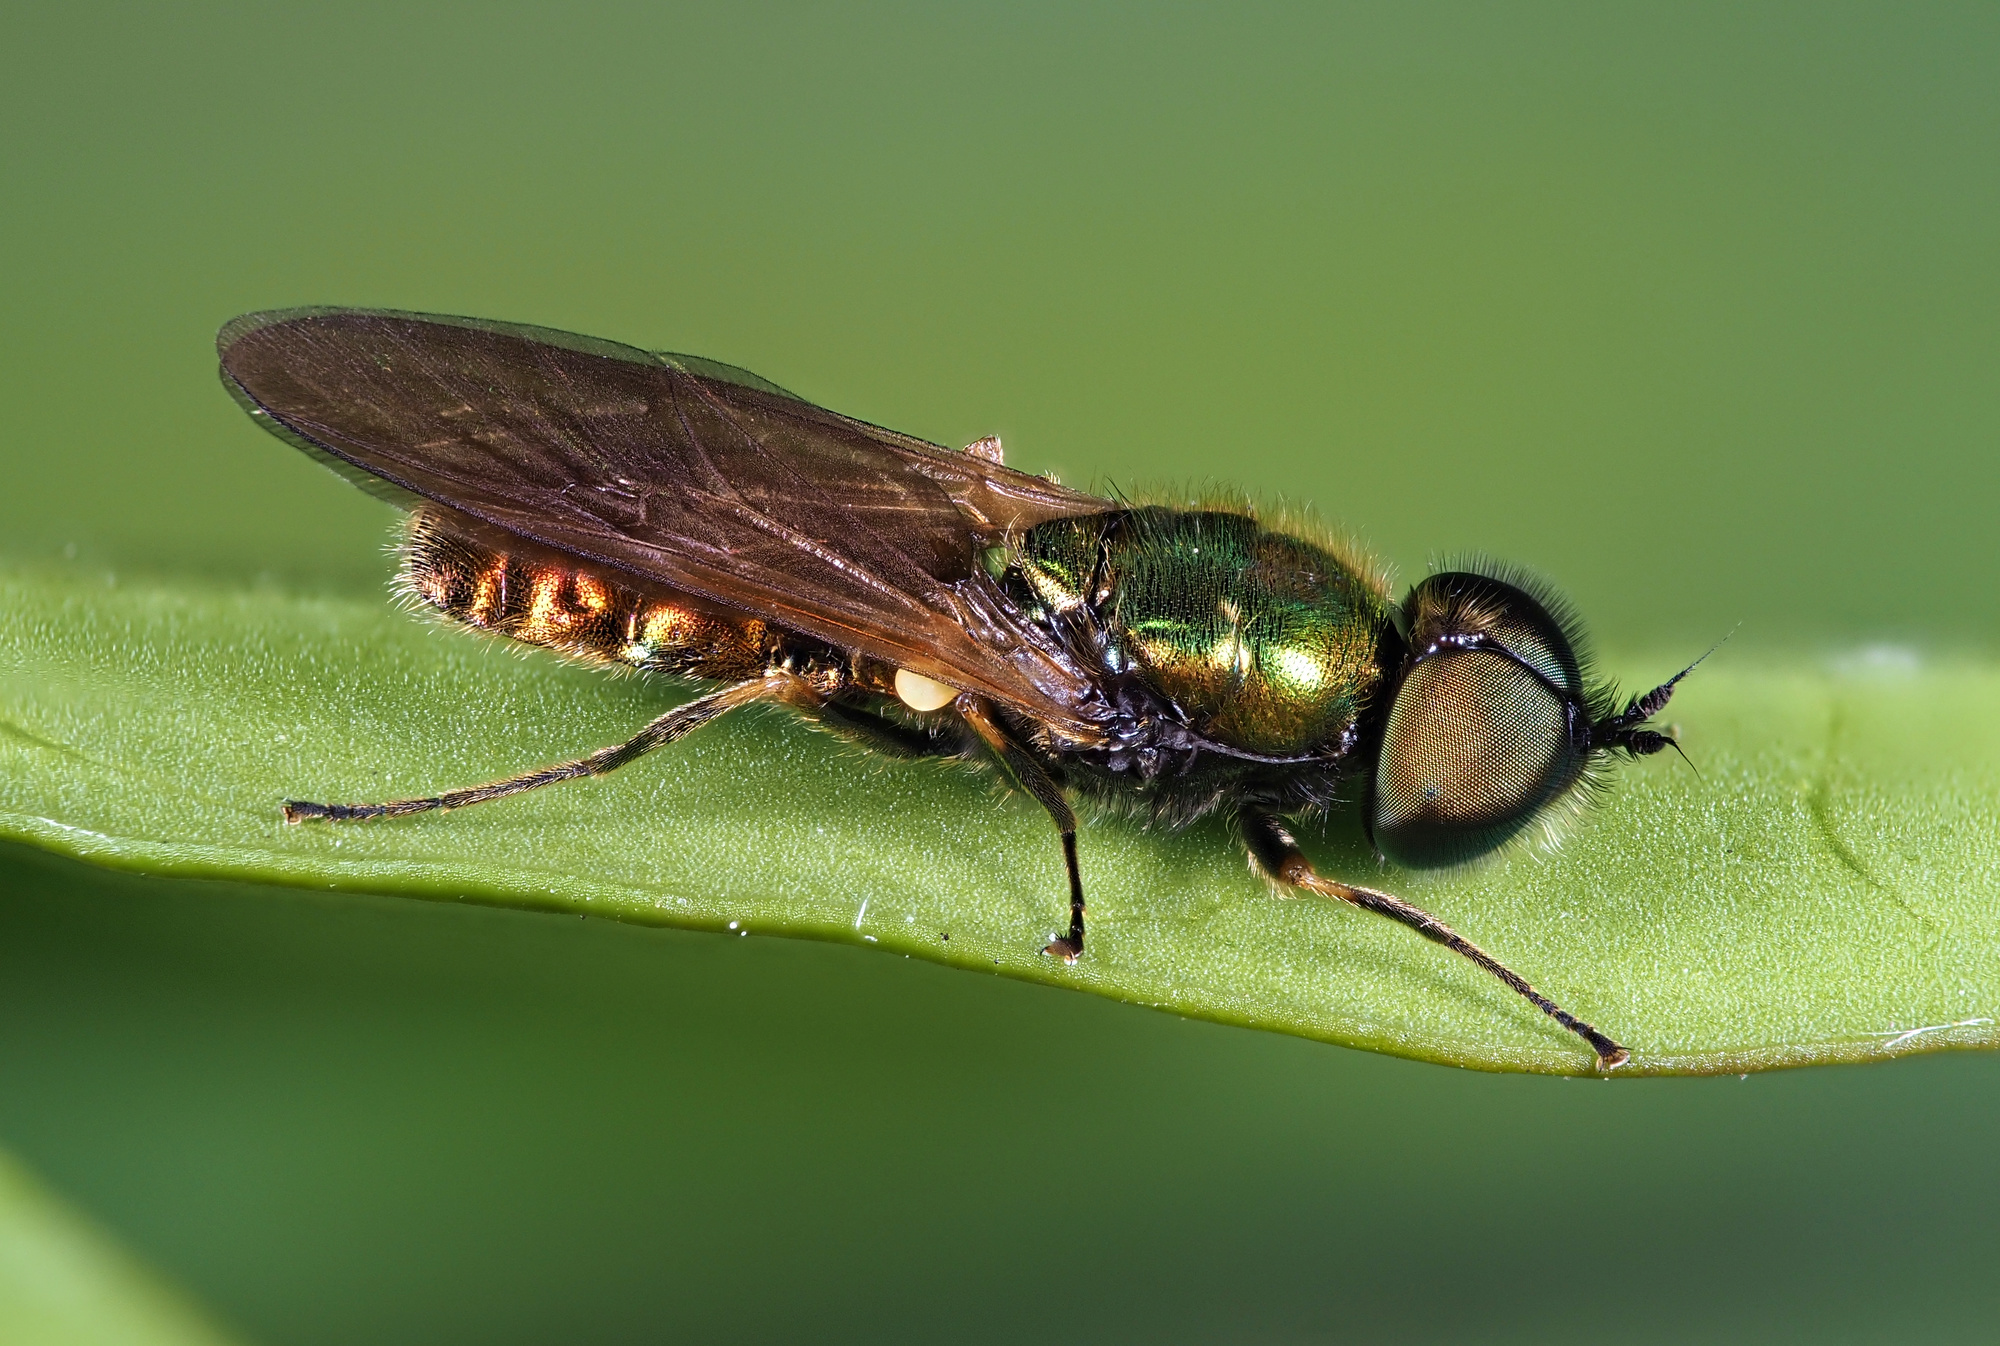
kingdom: Animalia
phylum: Arthropoda
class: Insecta
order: Diptera
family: Stratiomyidae
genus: Chloromyia
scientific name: Chloromyia formosa
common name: Soldier fly
